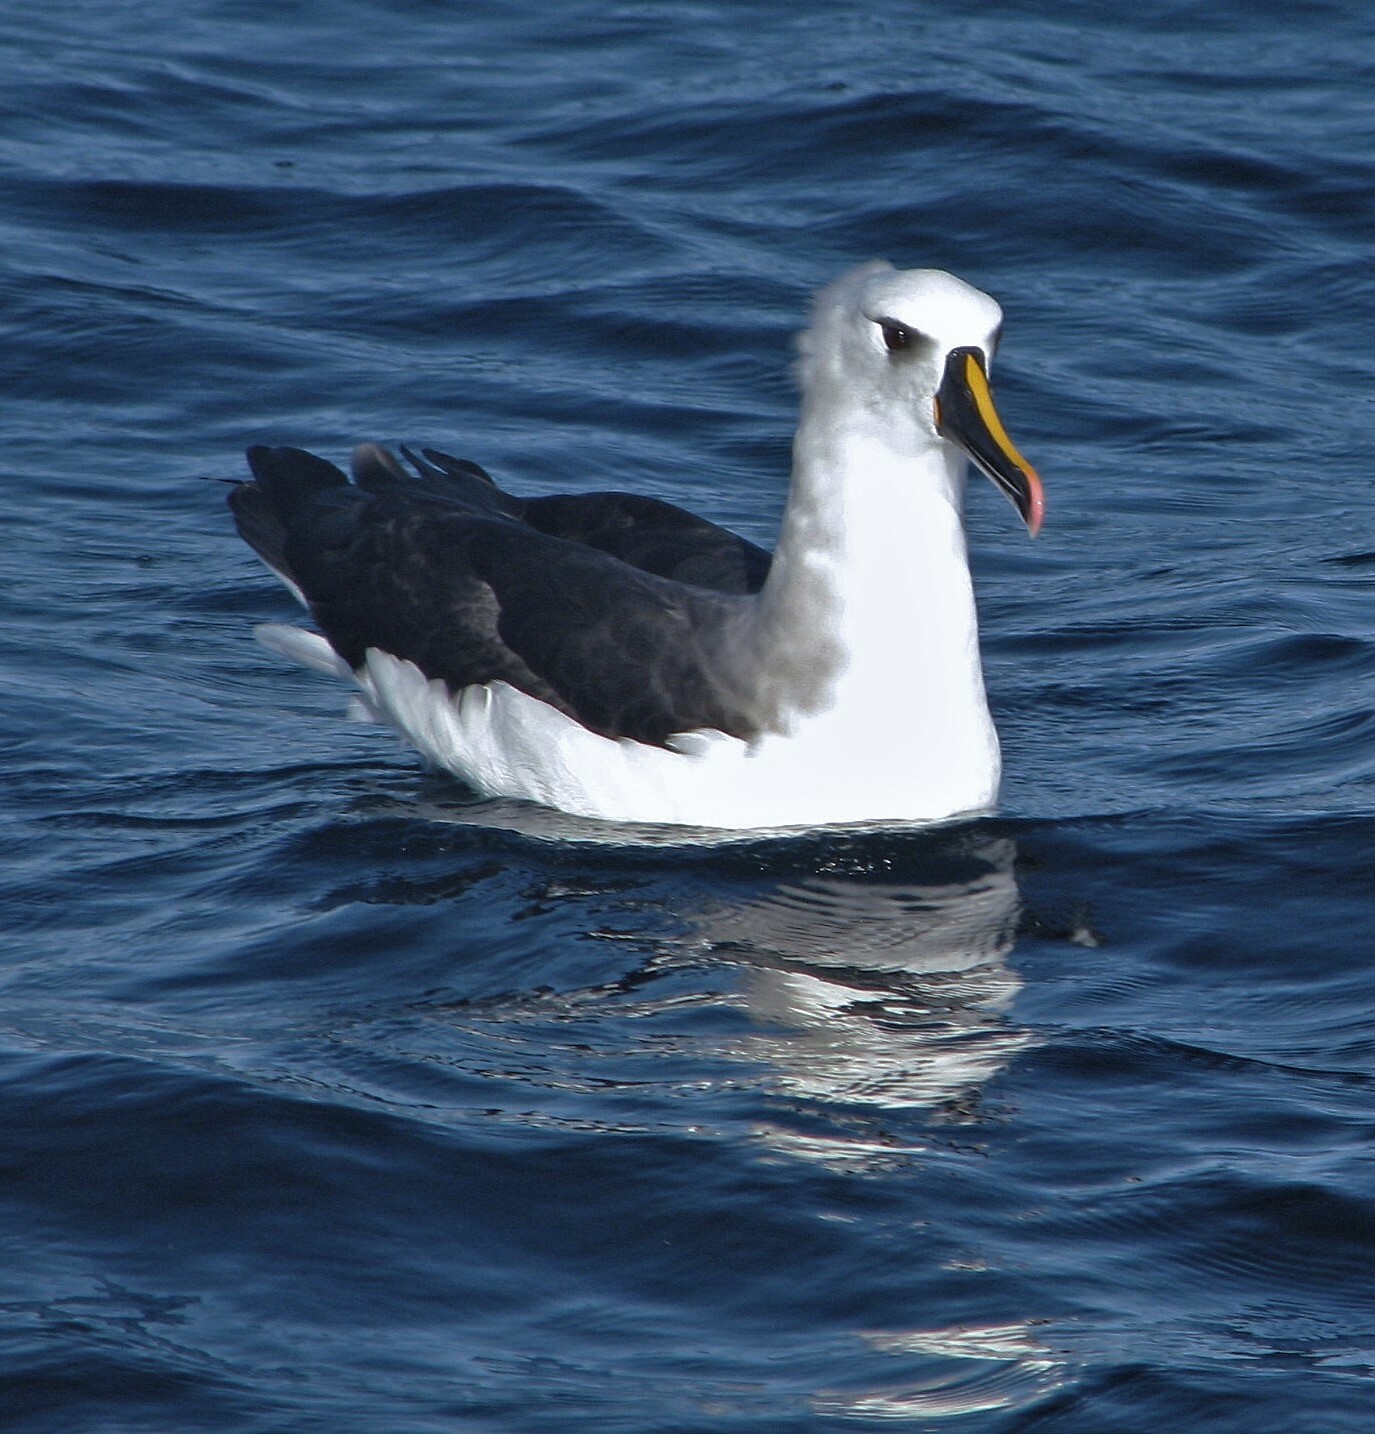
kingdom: Animalia
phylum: Chordata
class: Aves
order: Procellariiformes
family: Diomedeidae
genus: Thalassarche
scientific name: Thalassarche chlororhynchos
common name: Atlantic yellow-nosed albatross
